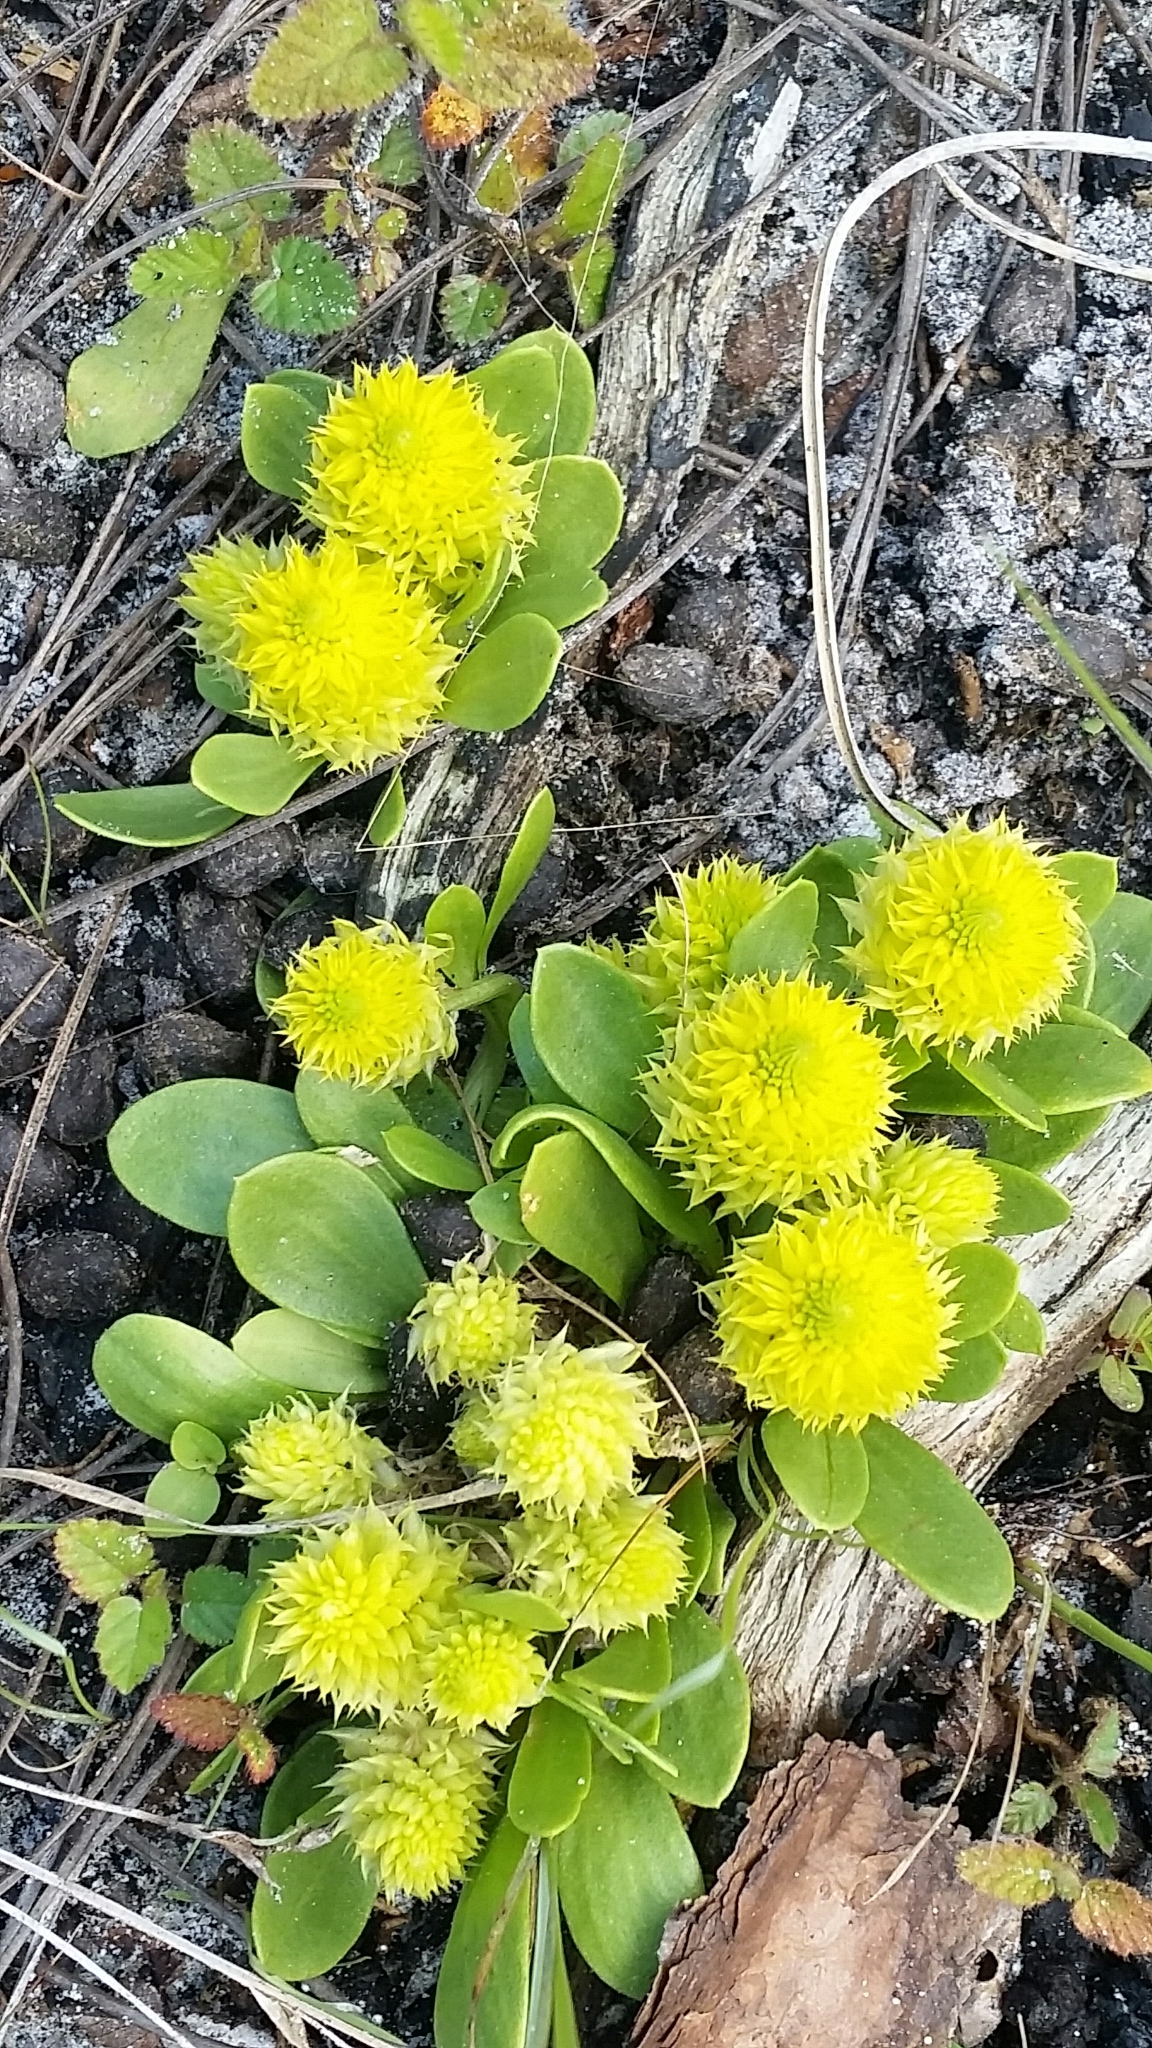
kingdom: Plantae
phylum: Tracheophyta
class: Magnoliopsida
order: Fabales
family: Polygalaceae
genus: Polygala
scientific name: Polygala nana
